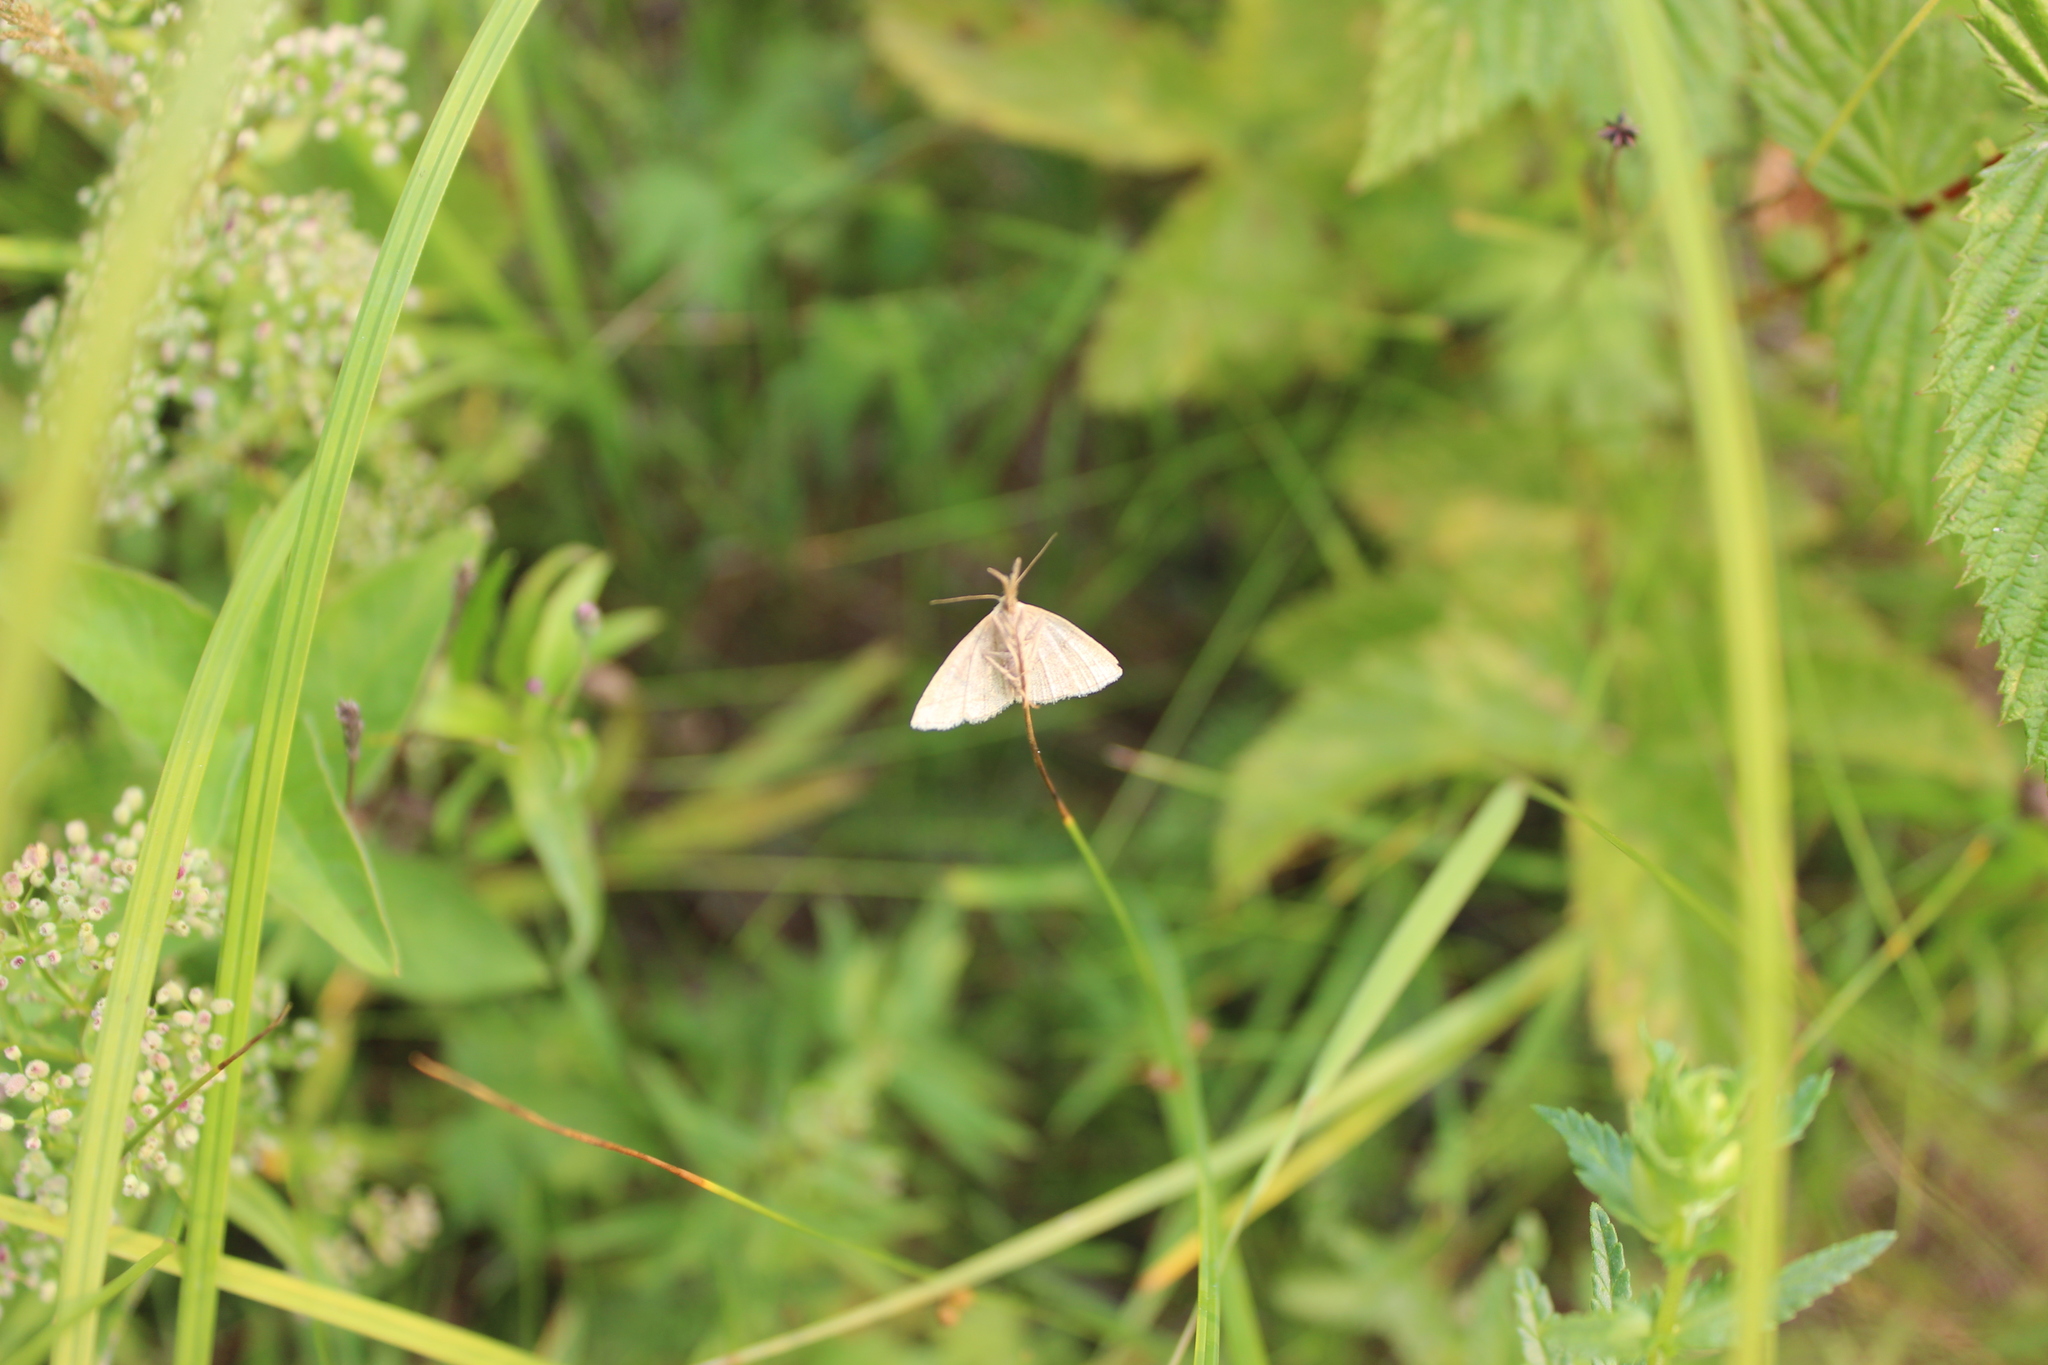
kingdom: Animalia
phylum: Arthropoda
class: Insecta
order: Lepidoptera
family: Erebidae
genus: Polypogon
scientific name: Polypogon tentacularia
